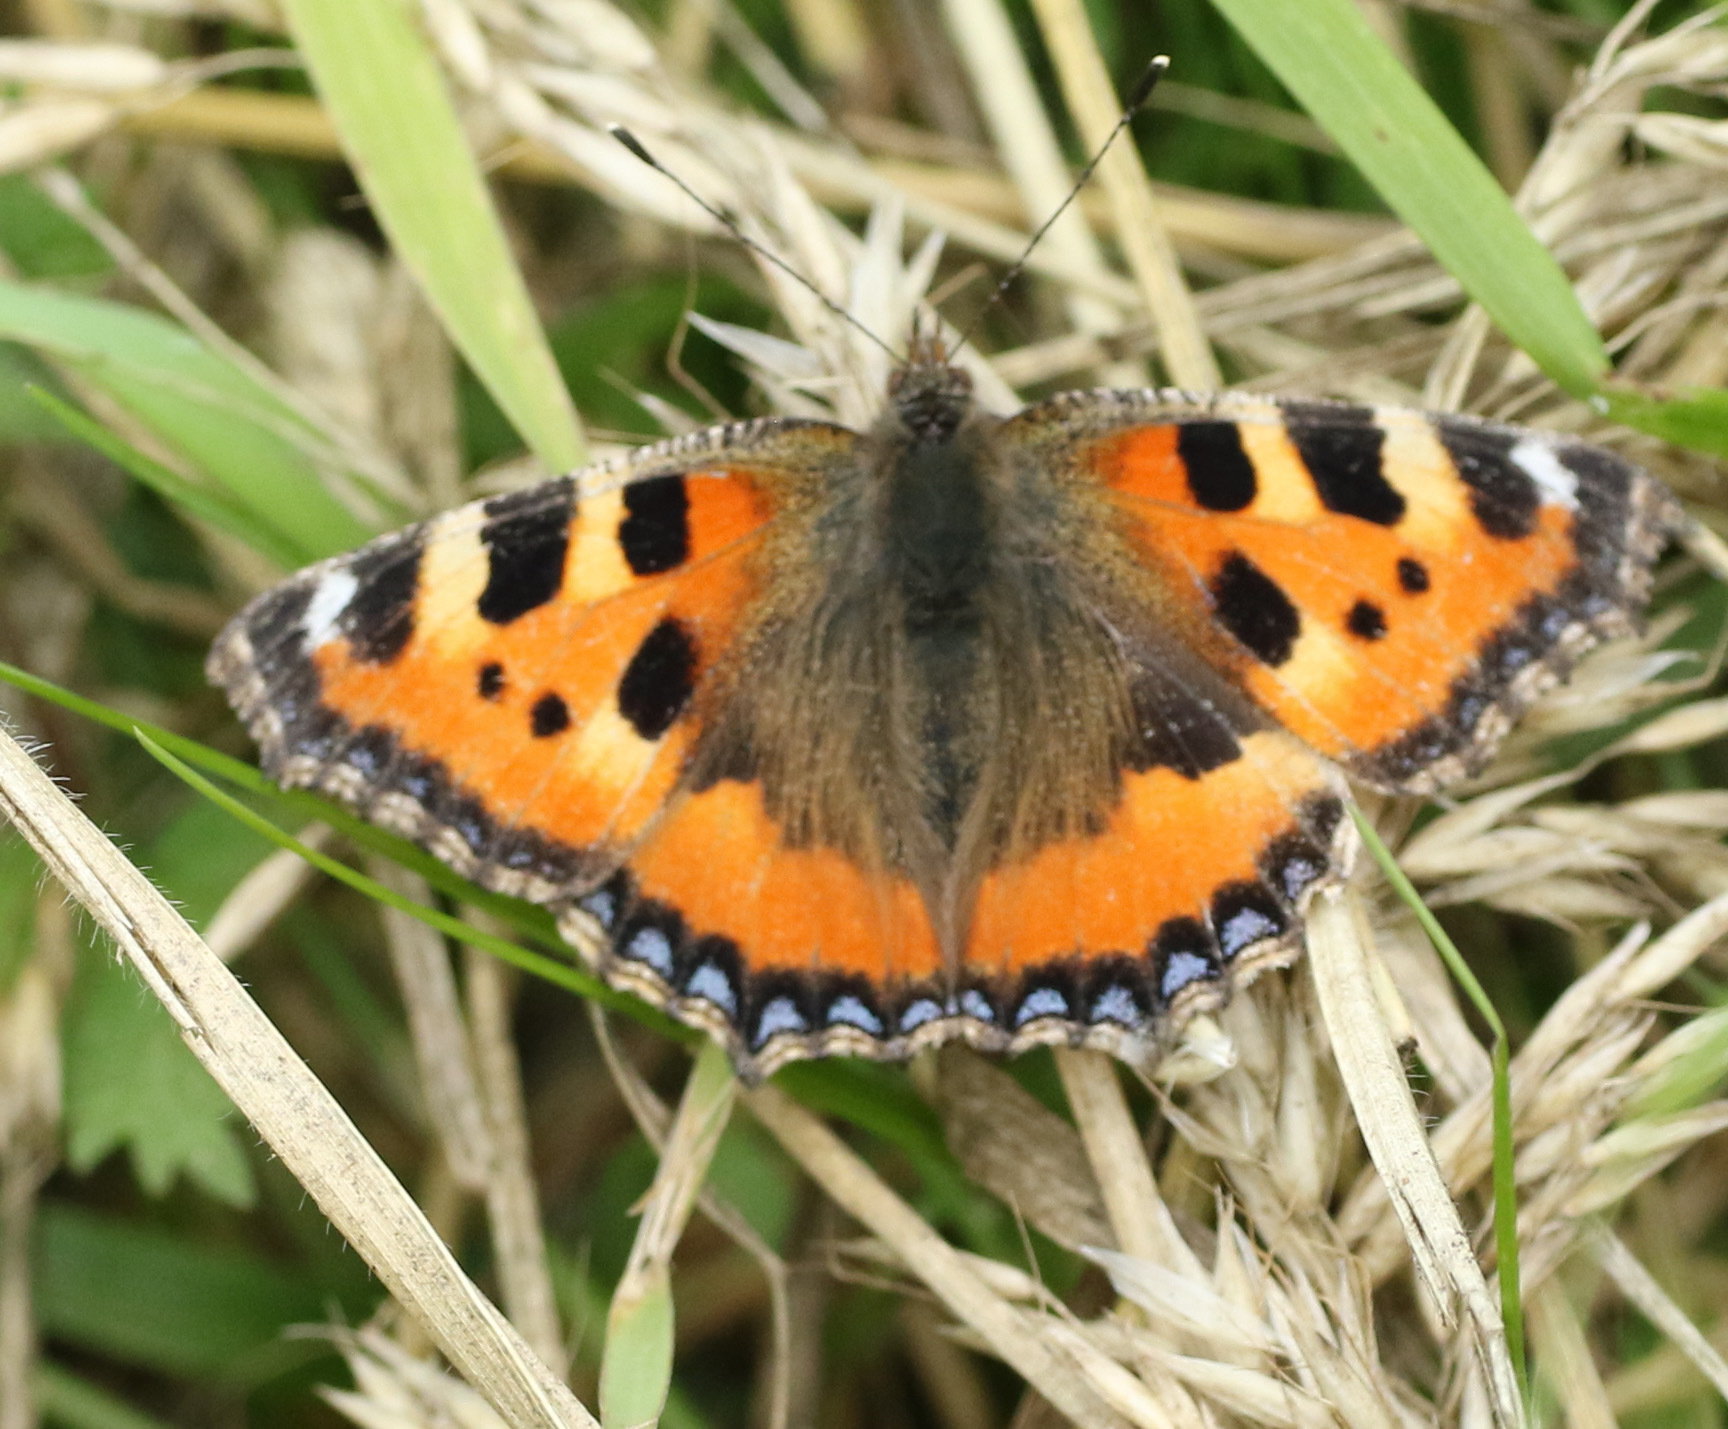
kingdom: Animalia
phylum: Arthropoda
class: Insecta
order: Lepidoptera
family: Nymphalidae
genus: Aglais
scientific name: Aglais urticae
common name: Small tortoiseshell
